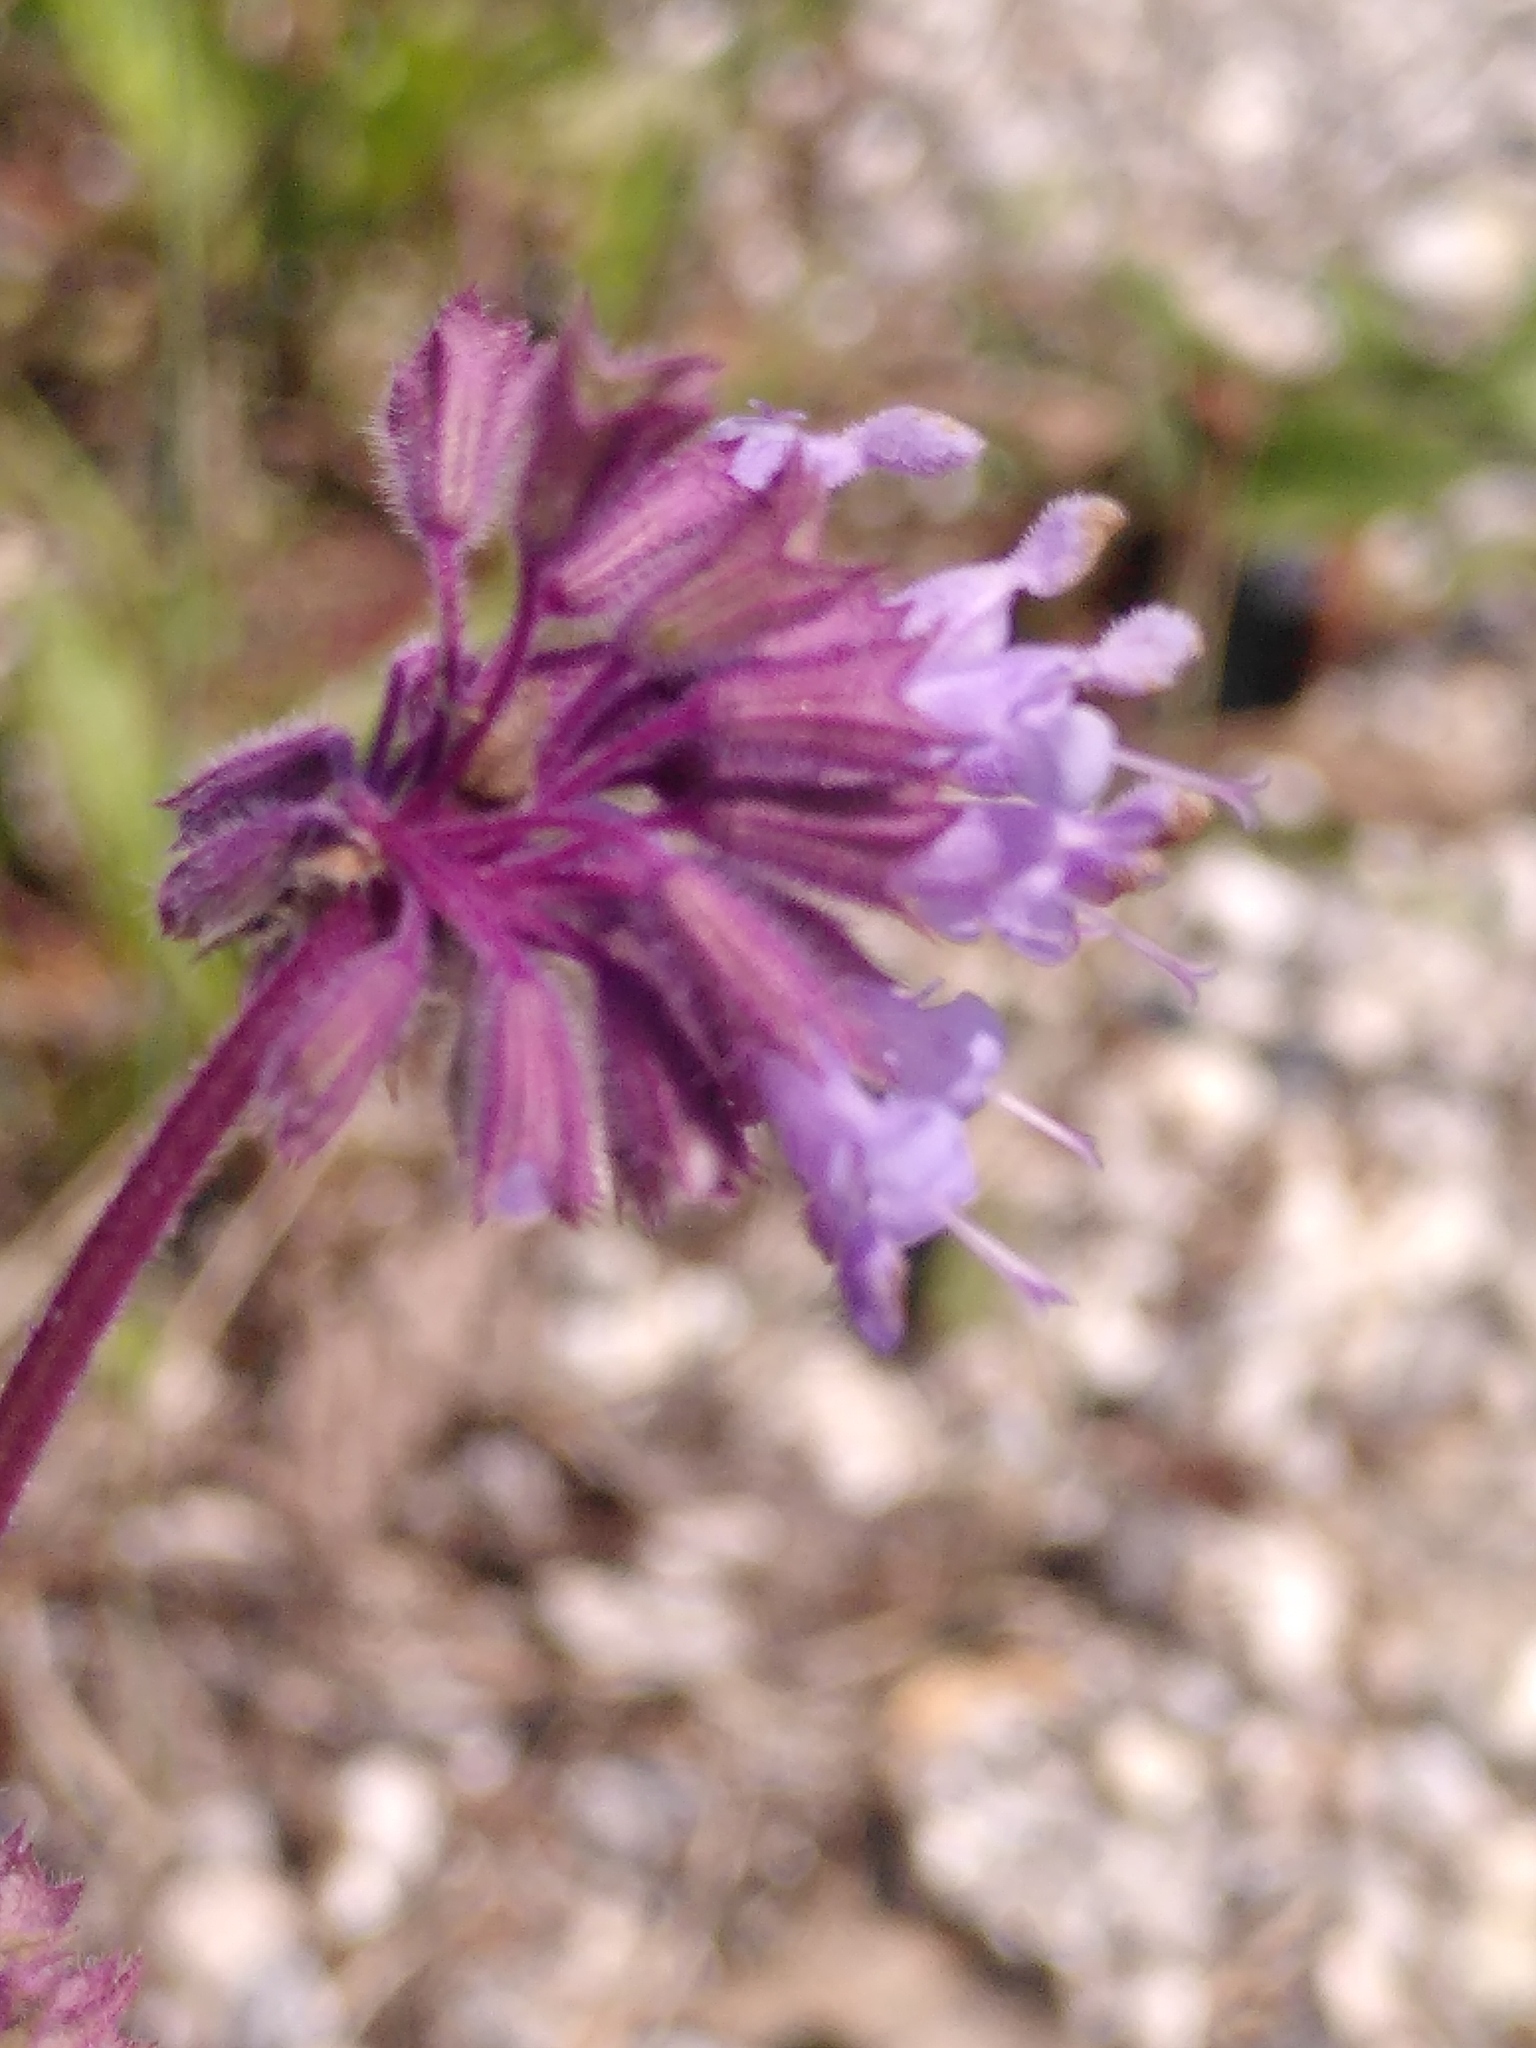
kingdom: Plantae
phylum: Tracheophyta
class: Magnoliopsida
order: Lamiales
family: Lamiaceae
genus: Salvia
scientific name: Salvia verticillata
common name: Whorled clary
